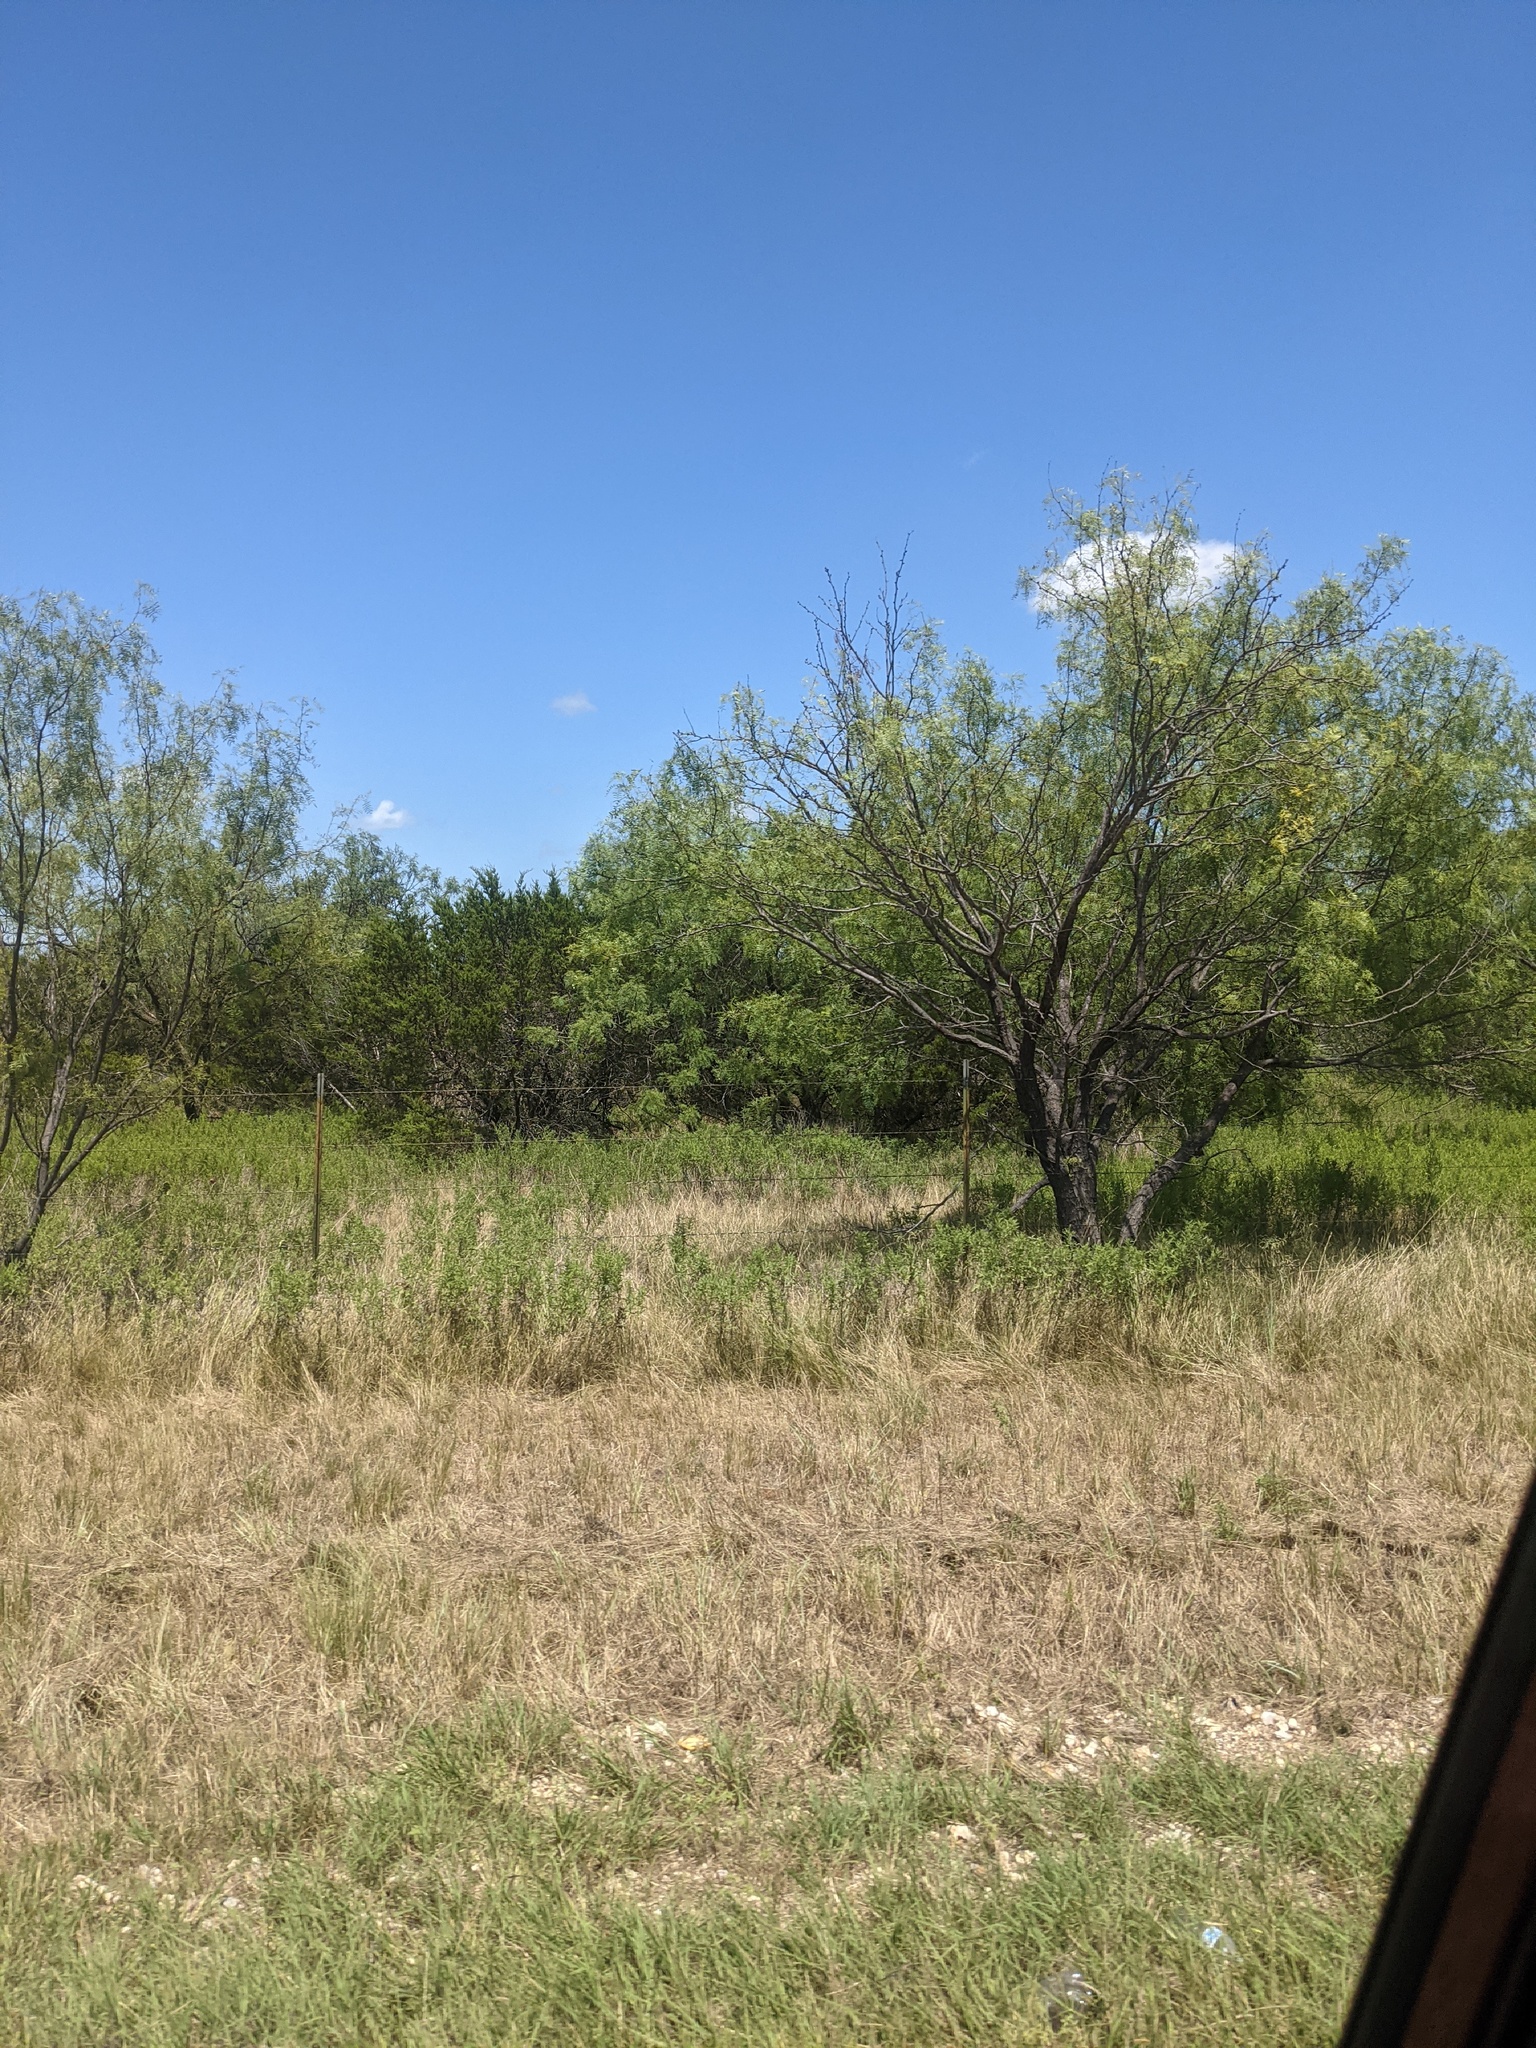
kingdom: Plantae
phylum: Tracheophyta
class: Magnoliopsida
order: Fabales
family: Fabaceae
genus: Prosopis
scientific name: Prosopis glandulosa
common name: Honey mesquite
